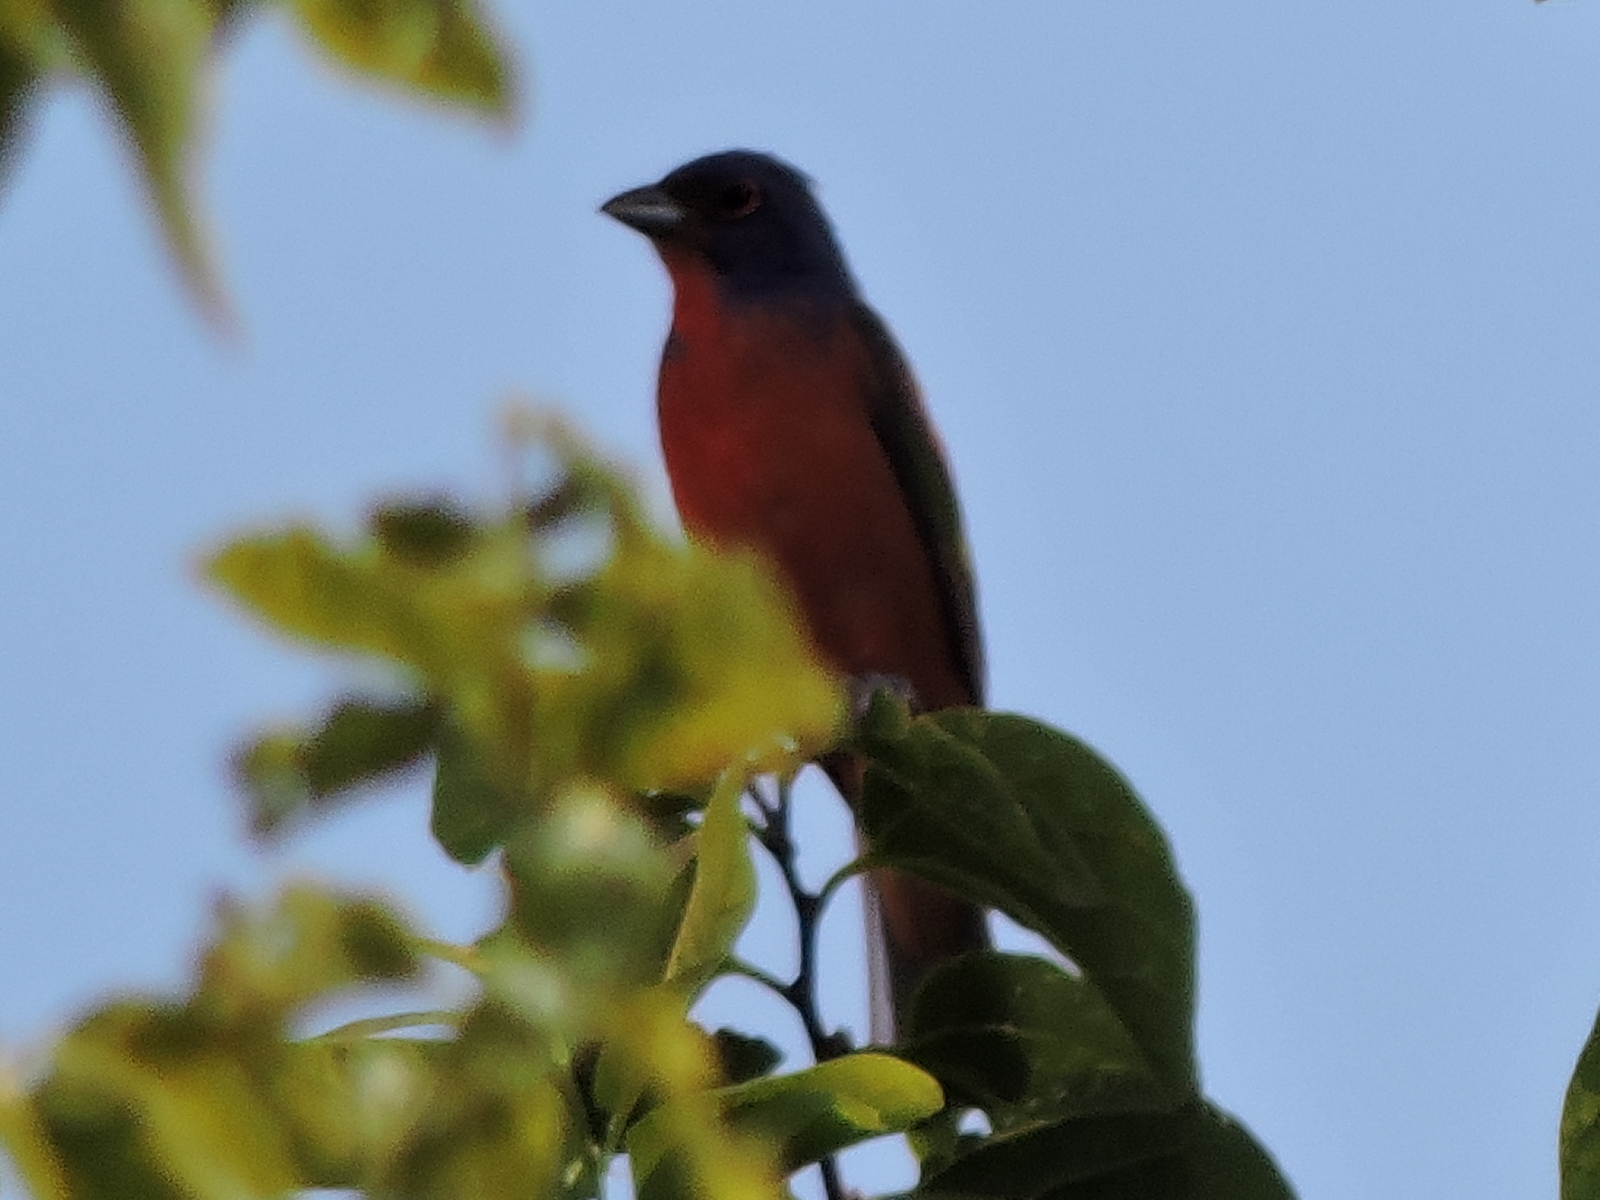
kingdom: Animalia
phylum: Chordata
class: Aves
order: Passeriformes
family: Cardinalidae
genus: Passerina
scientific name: Passerina ciris
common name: Painted bunting
